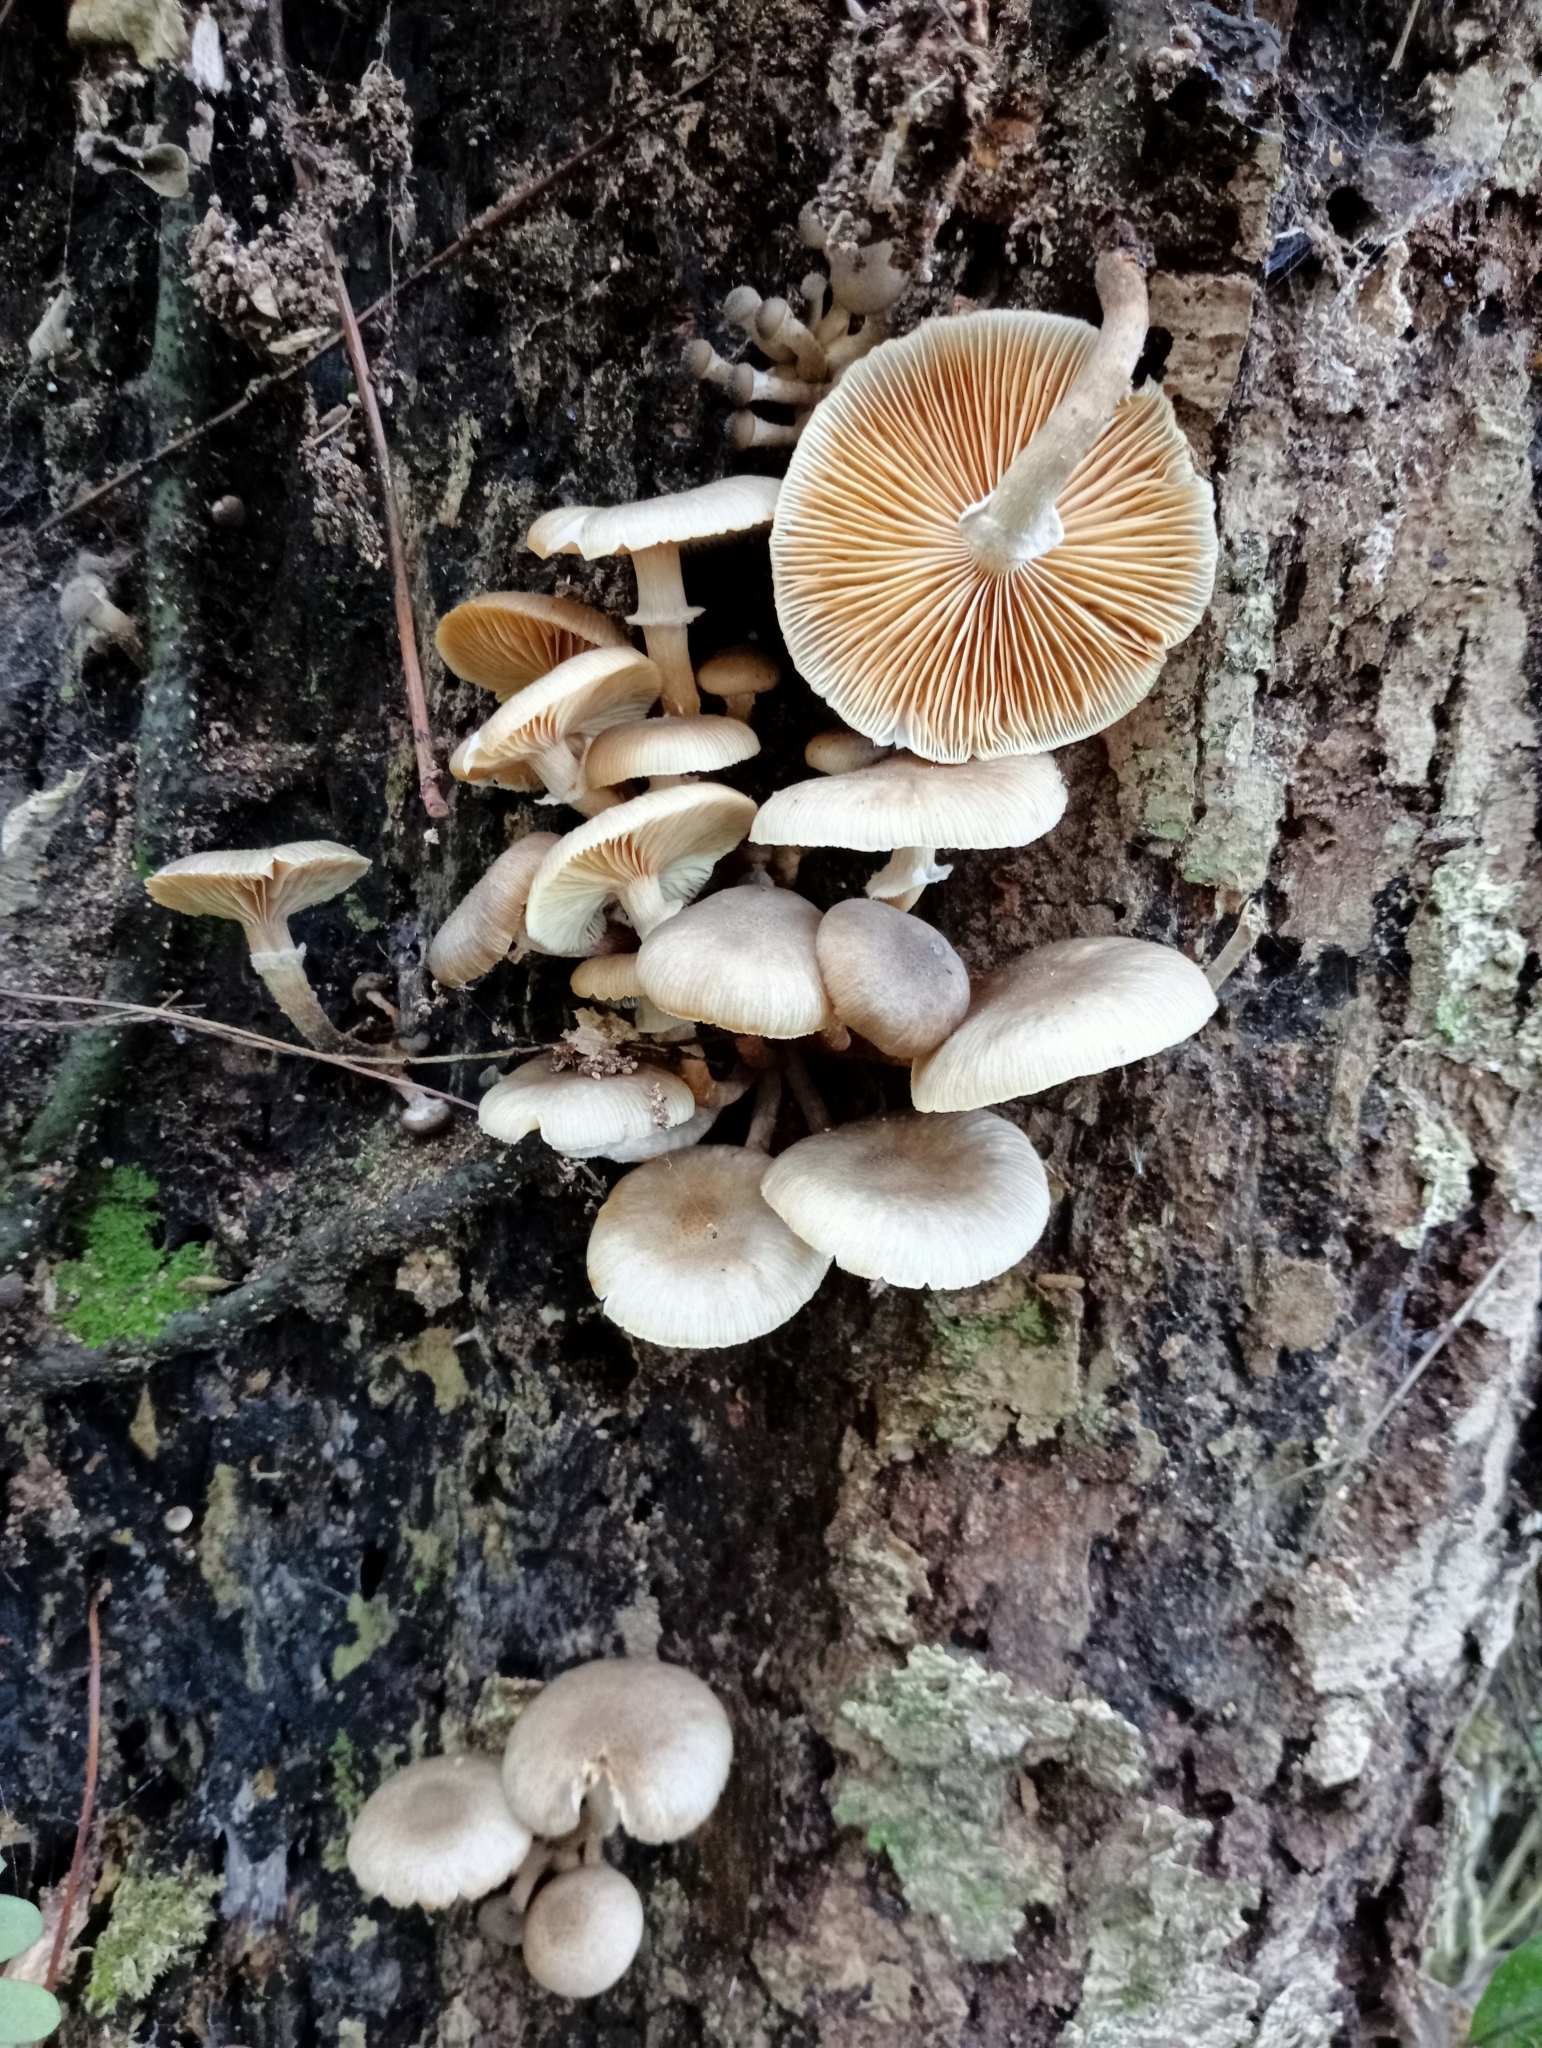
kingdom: Fungi
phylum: Basidiomycota
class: Agaricomycetes
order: Agaricales
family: Physalacriaceae
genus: Armillaria
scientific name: Armillaria novae-zelandiae
